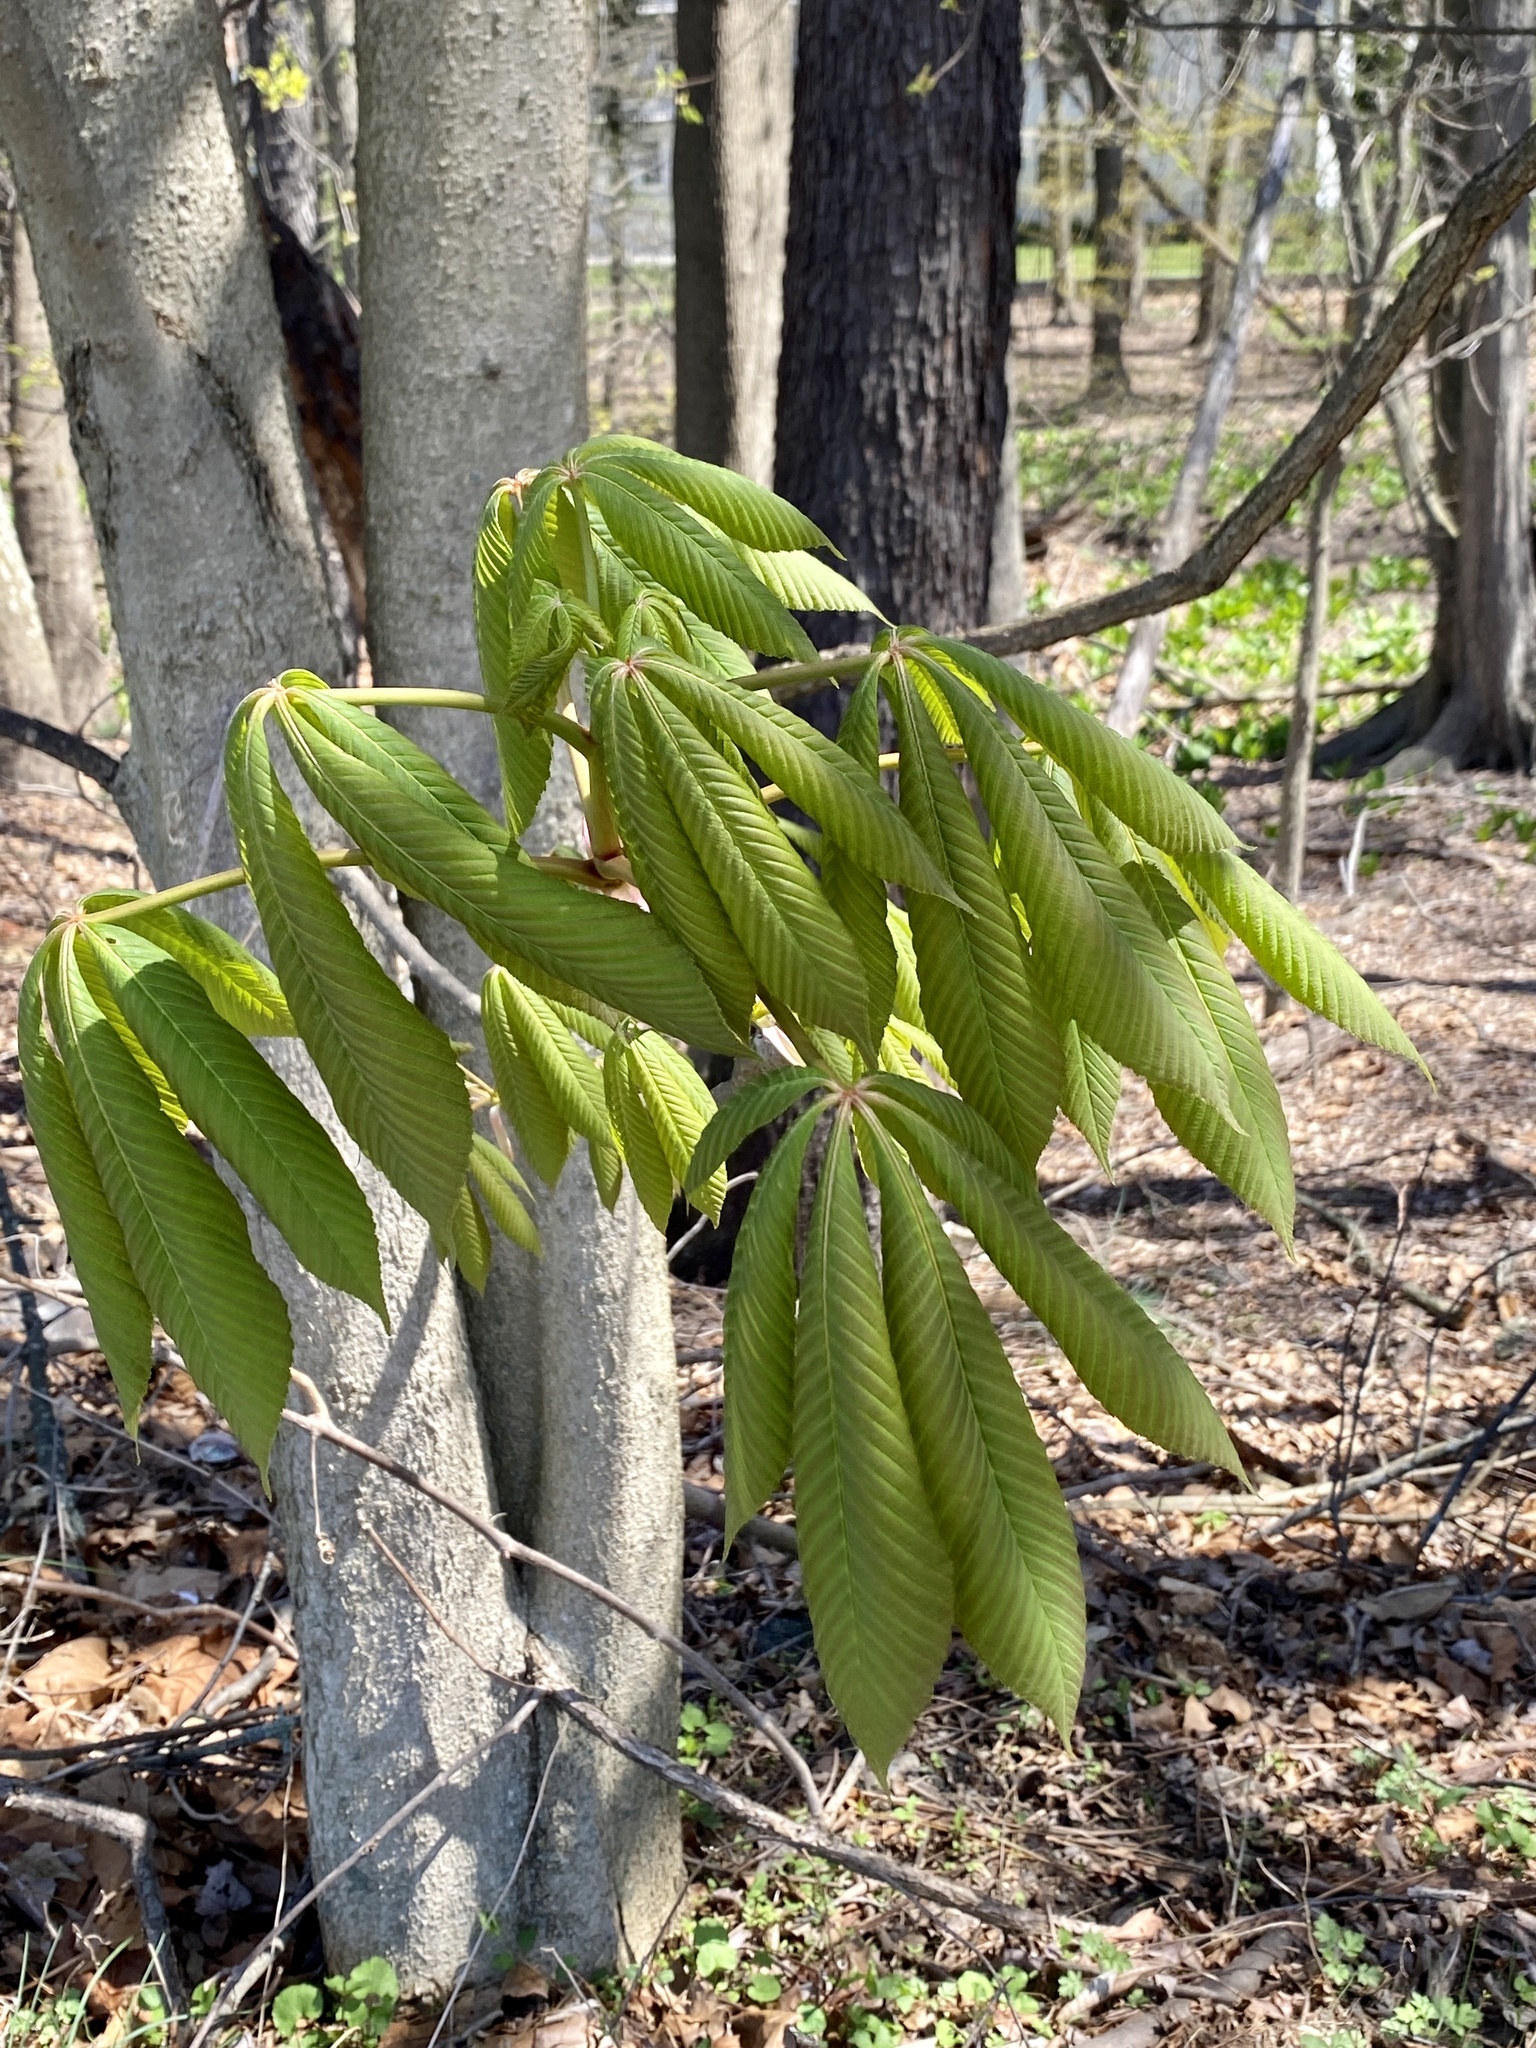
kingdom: Plantae
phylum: Tracheophyta
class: Magnoliopsida
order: Sapindales
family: Sapindaceae
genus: Aesculus
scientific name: Aesculus flava
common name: Yellow buckeye
